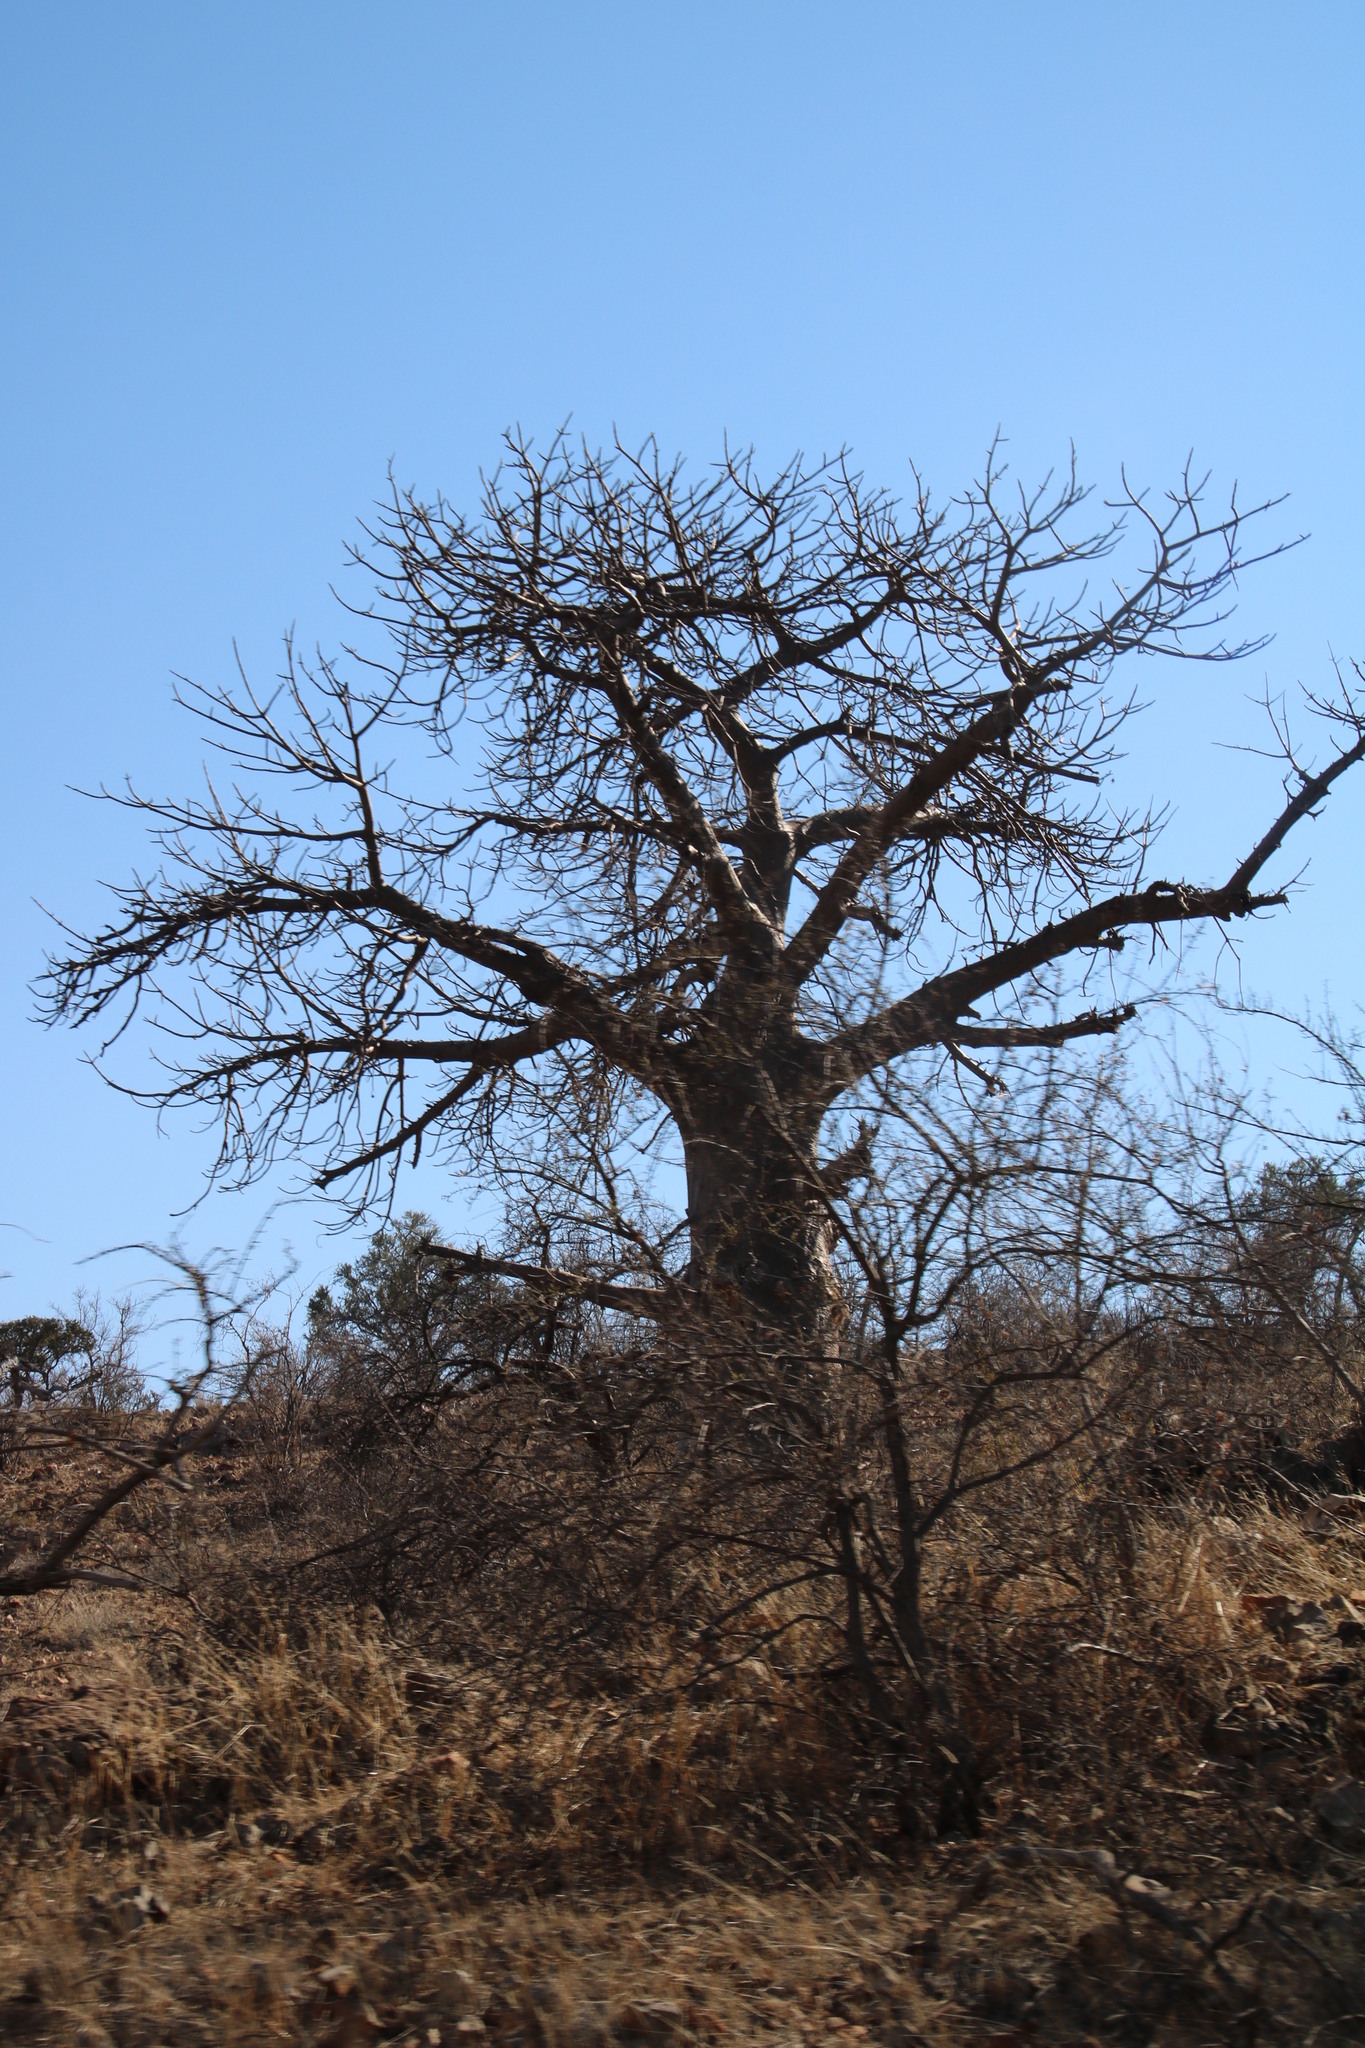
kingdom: Plantae
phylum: Tracheophyta
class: Magnoliopsida
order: Malvales
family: Malvaceae
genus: Adansonia
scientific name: Adansonia digitata
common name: Dead-rat-tree
